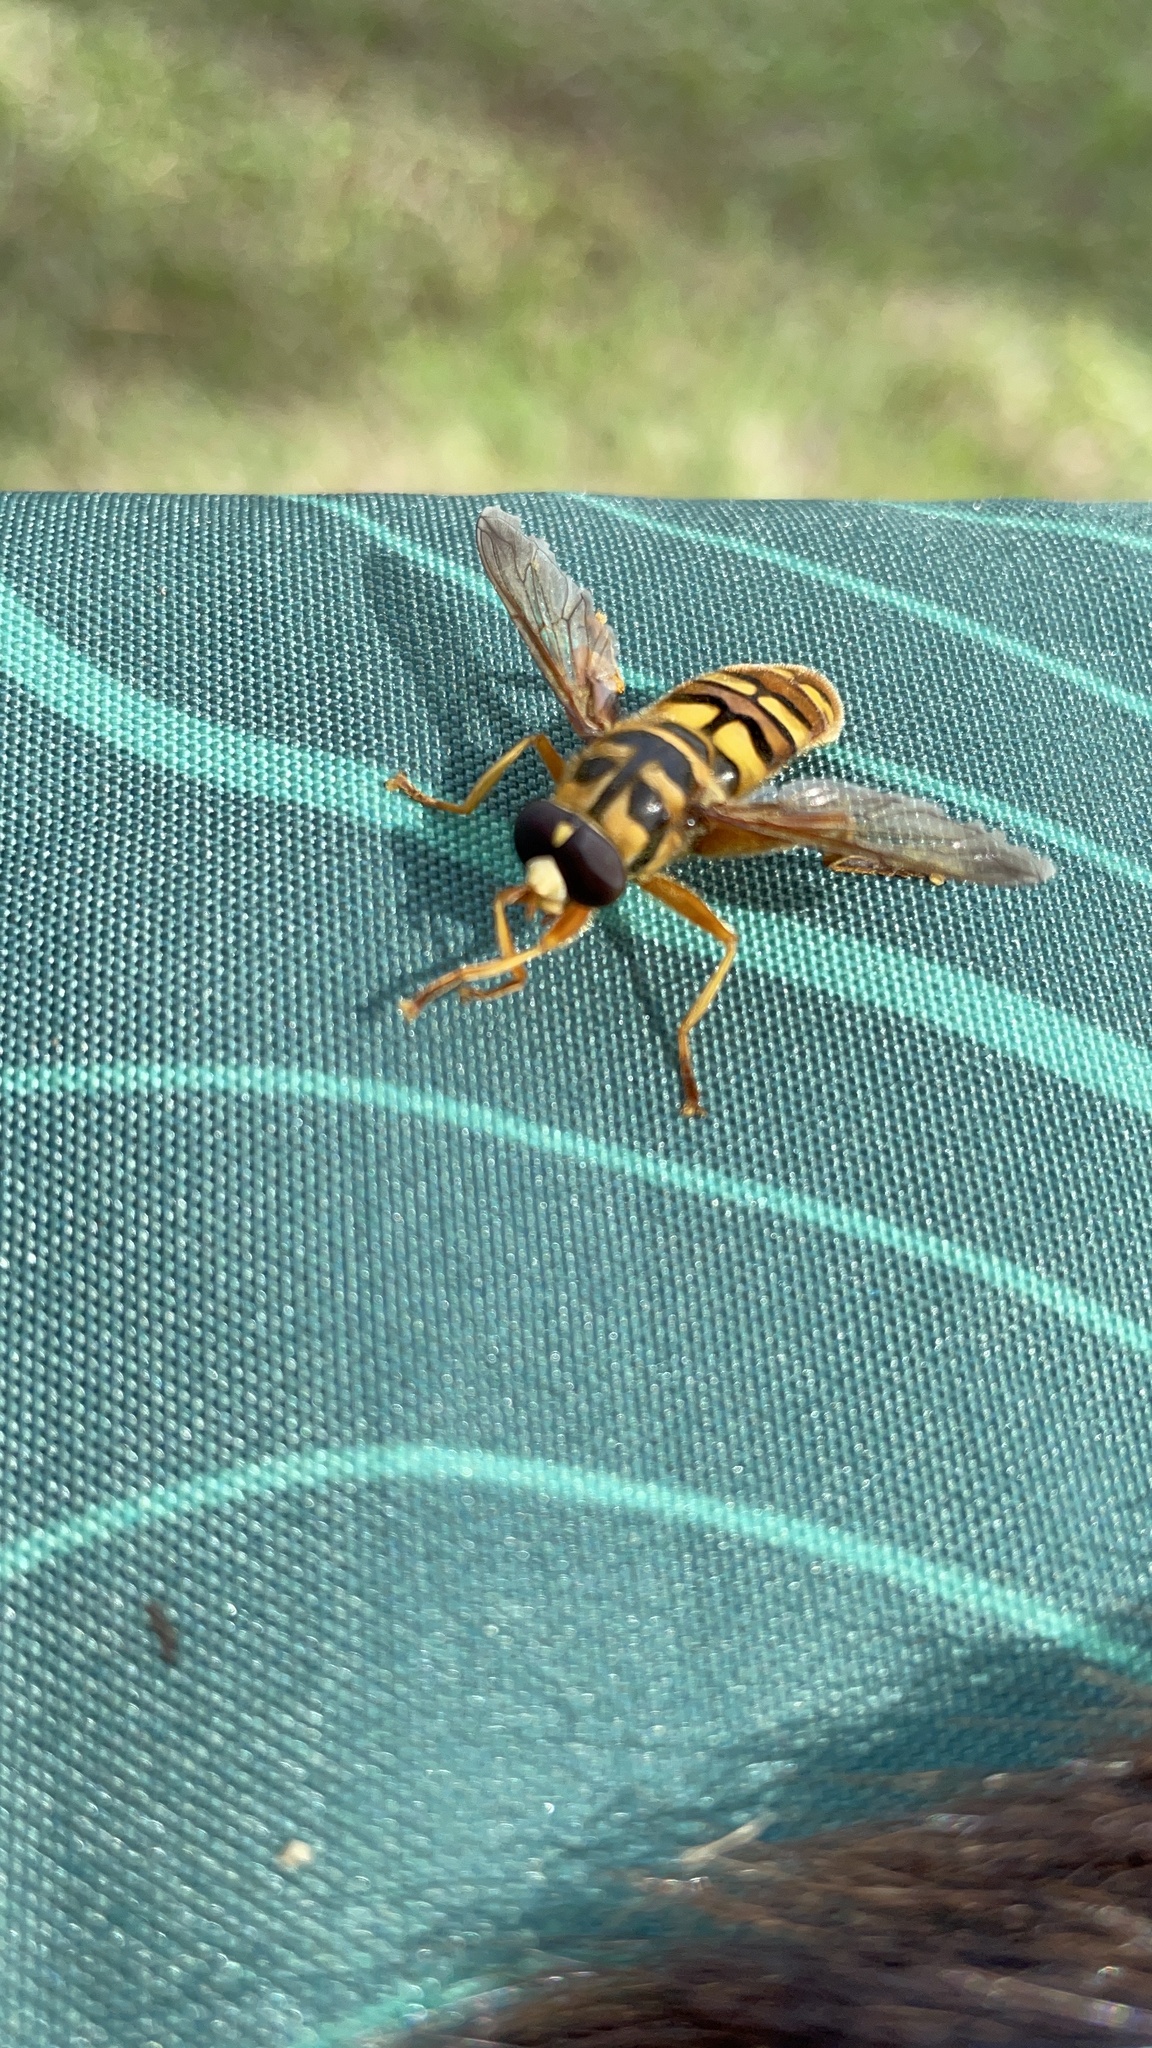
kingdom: Animalia
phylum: Arthropoda
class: Insecta
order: Diptera
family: Syrphidae
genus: Milesia
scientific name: Milesia virginiensis
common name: Virginia giant
